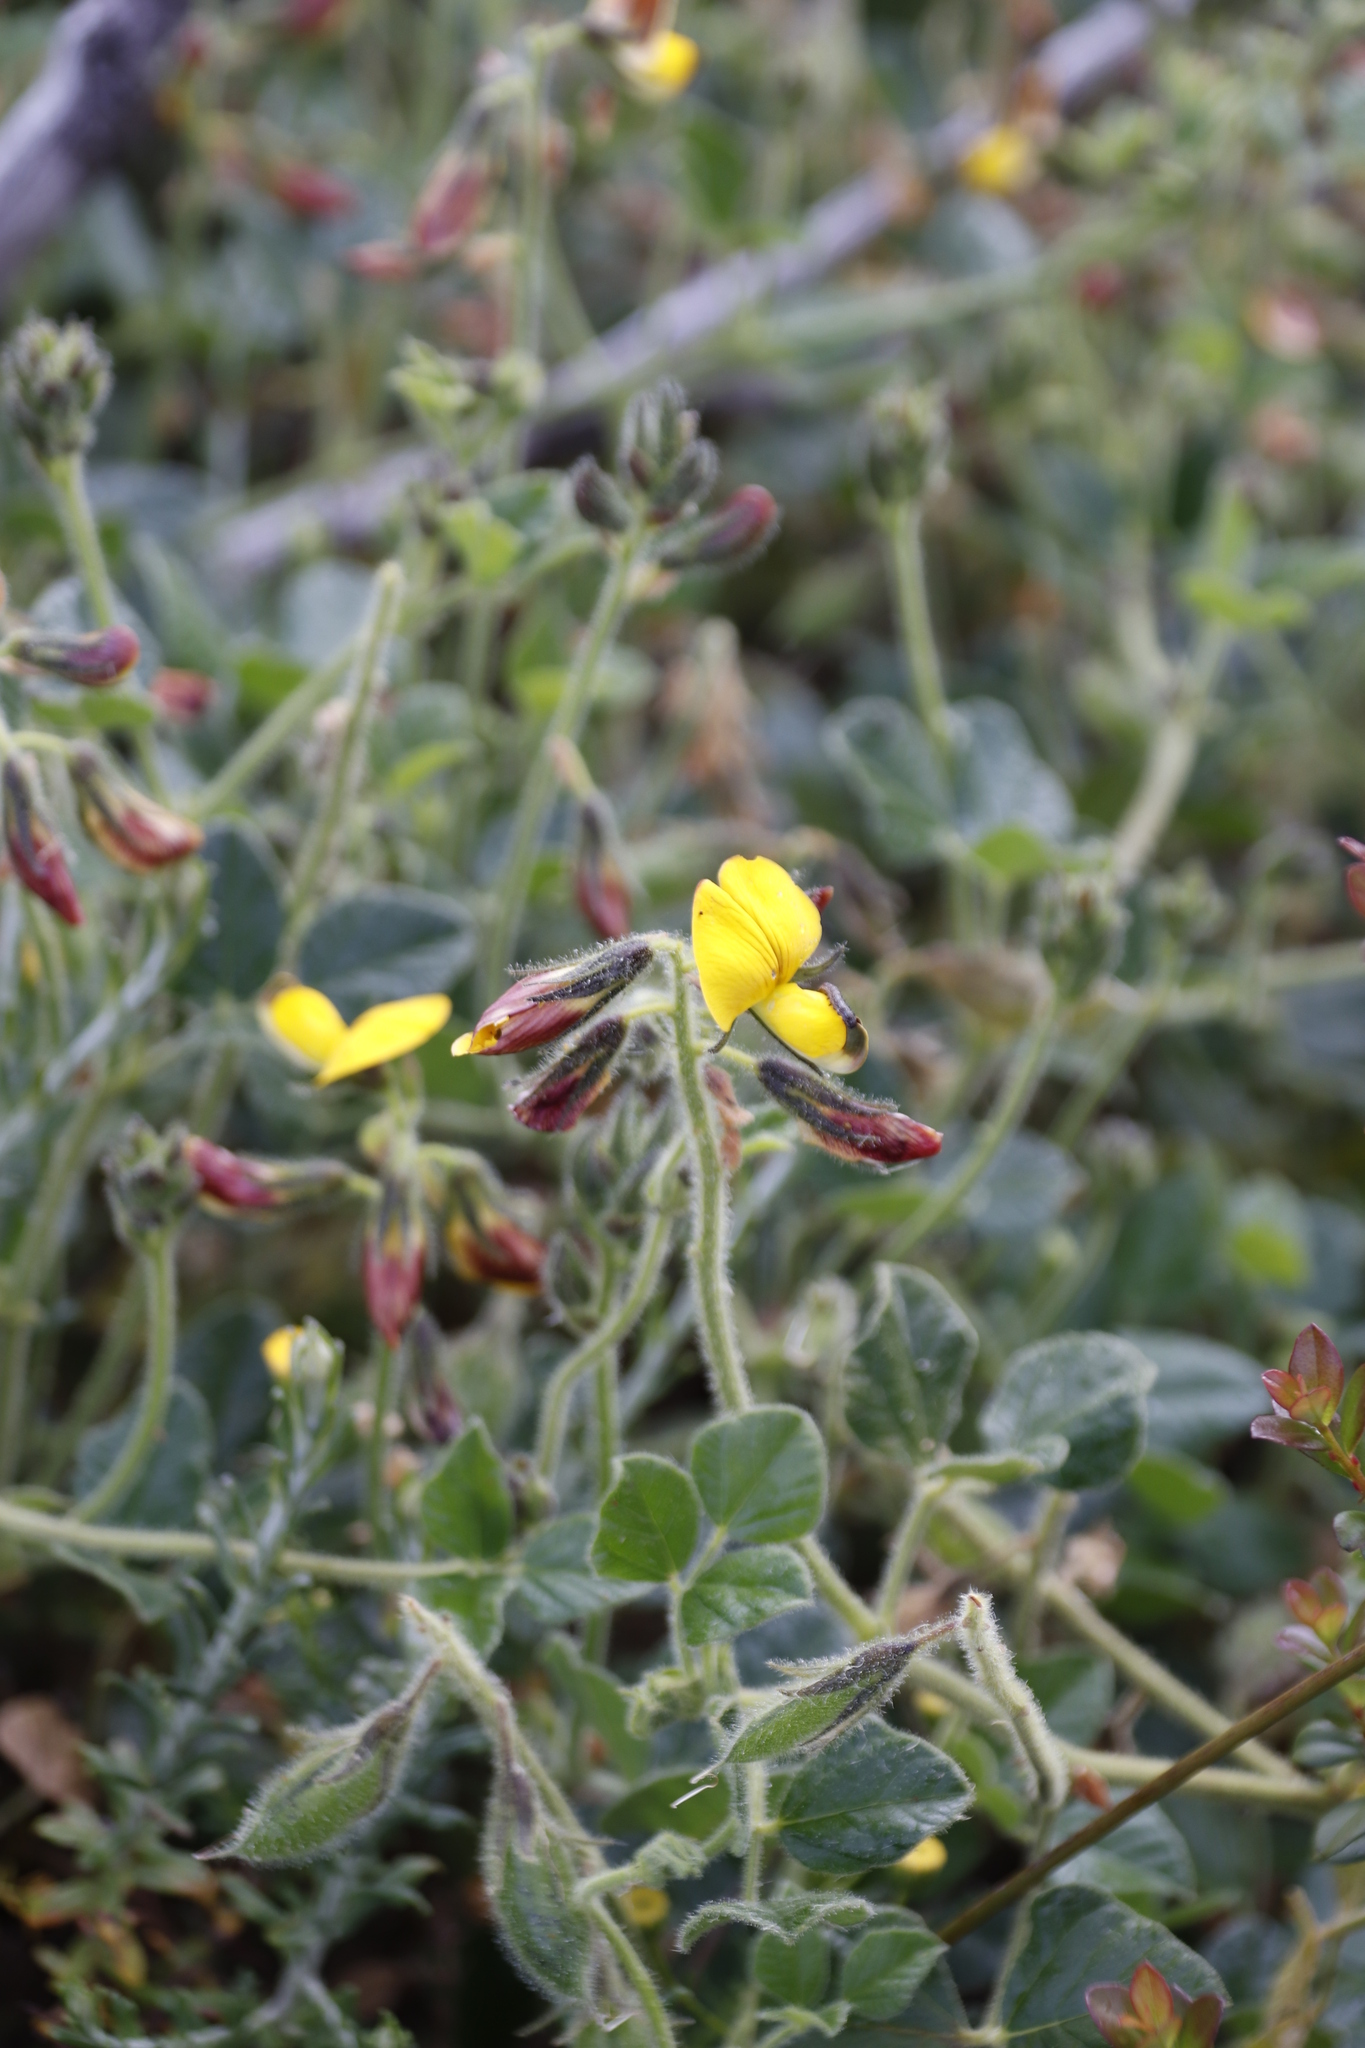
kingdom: Plantae
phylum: Tracheophyta
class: Magnoliopsida
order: Fabales
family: Fabaceae
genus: Bolusafra
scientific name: Bolusafra bituminosa
